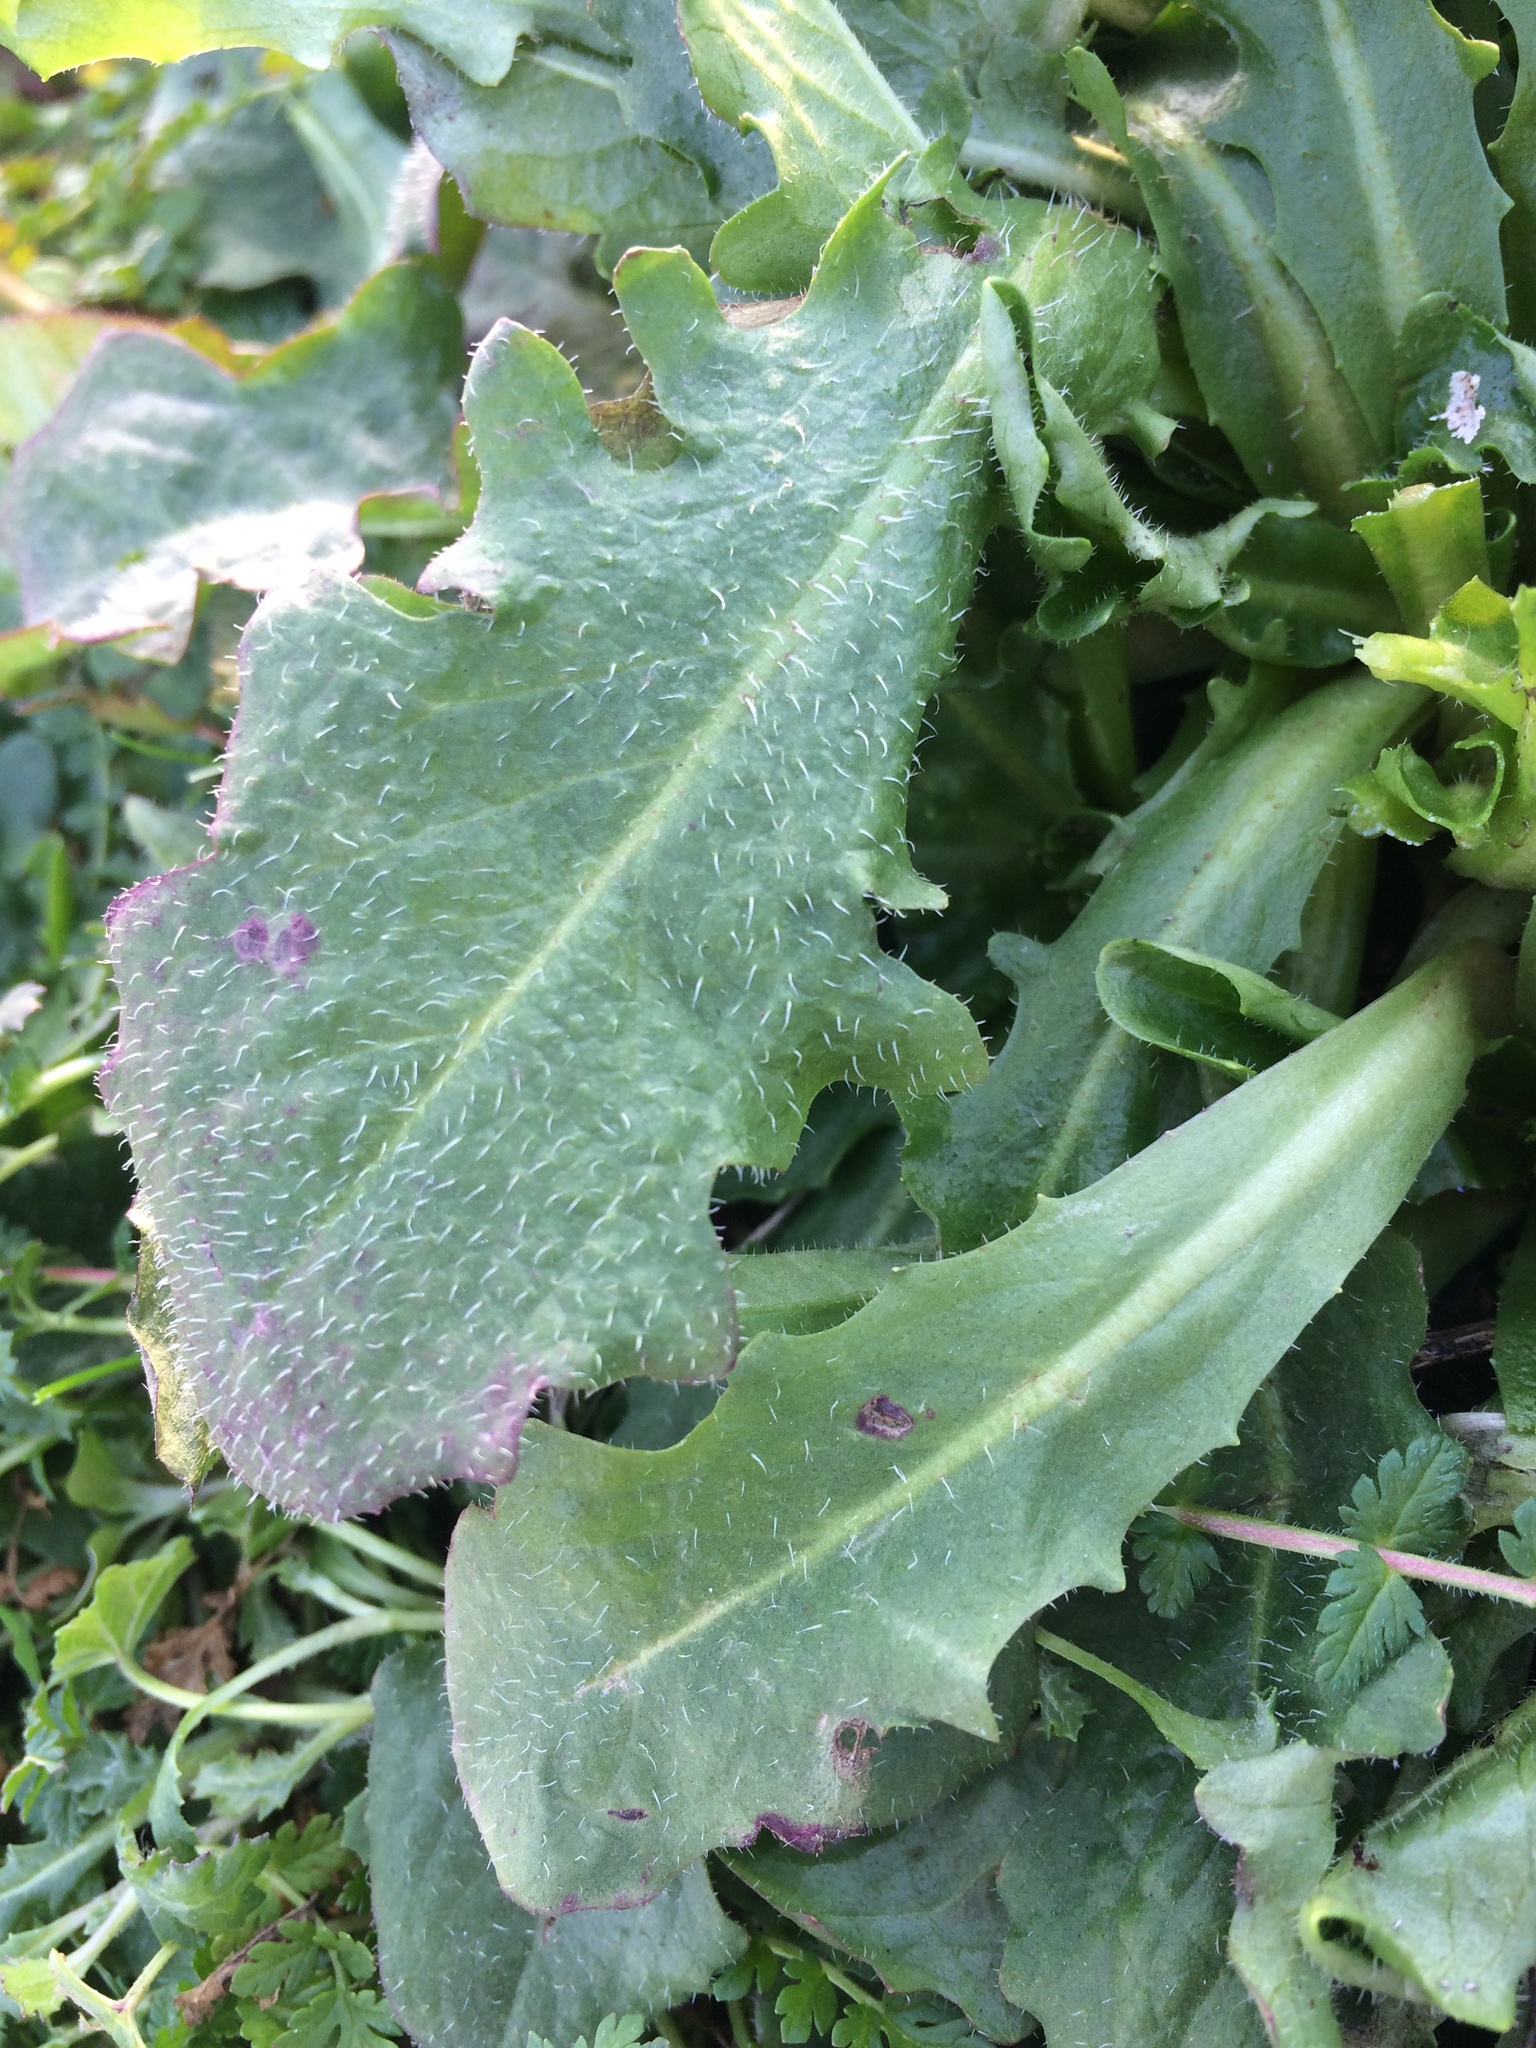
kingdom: Plantae
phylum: Tracheophyta
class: Magnoliopsida
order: Asterales
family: Asteraceae
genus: Hypochaeris
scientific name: Hypochaeris radicata
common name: Flatweed
